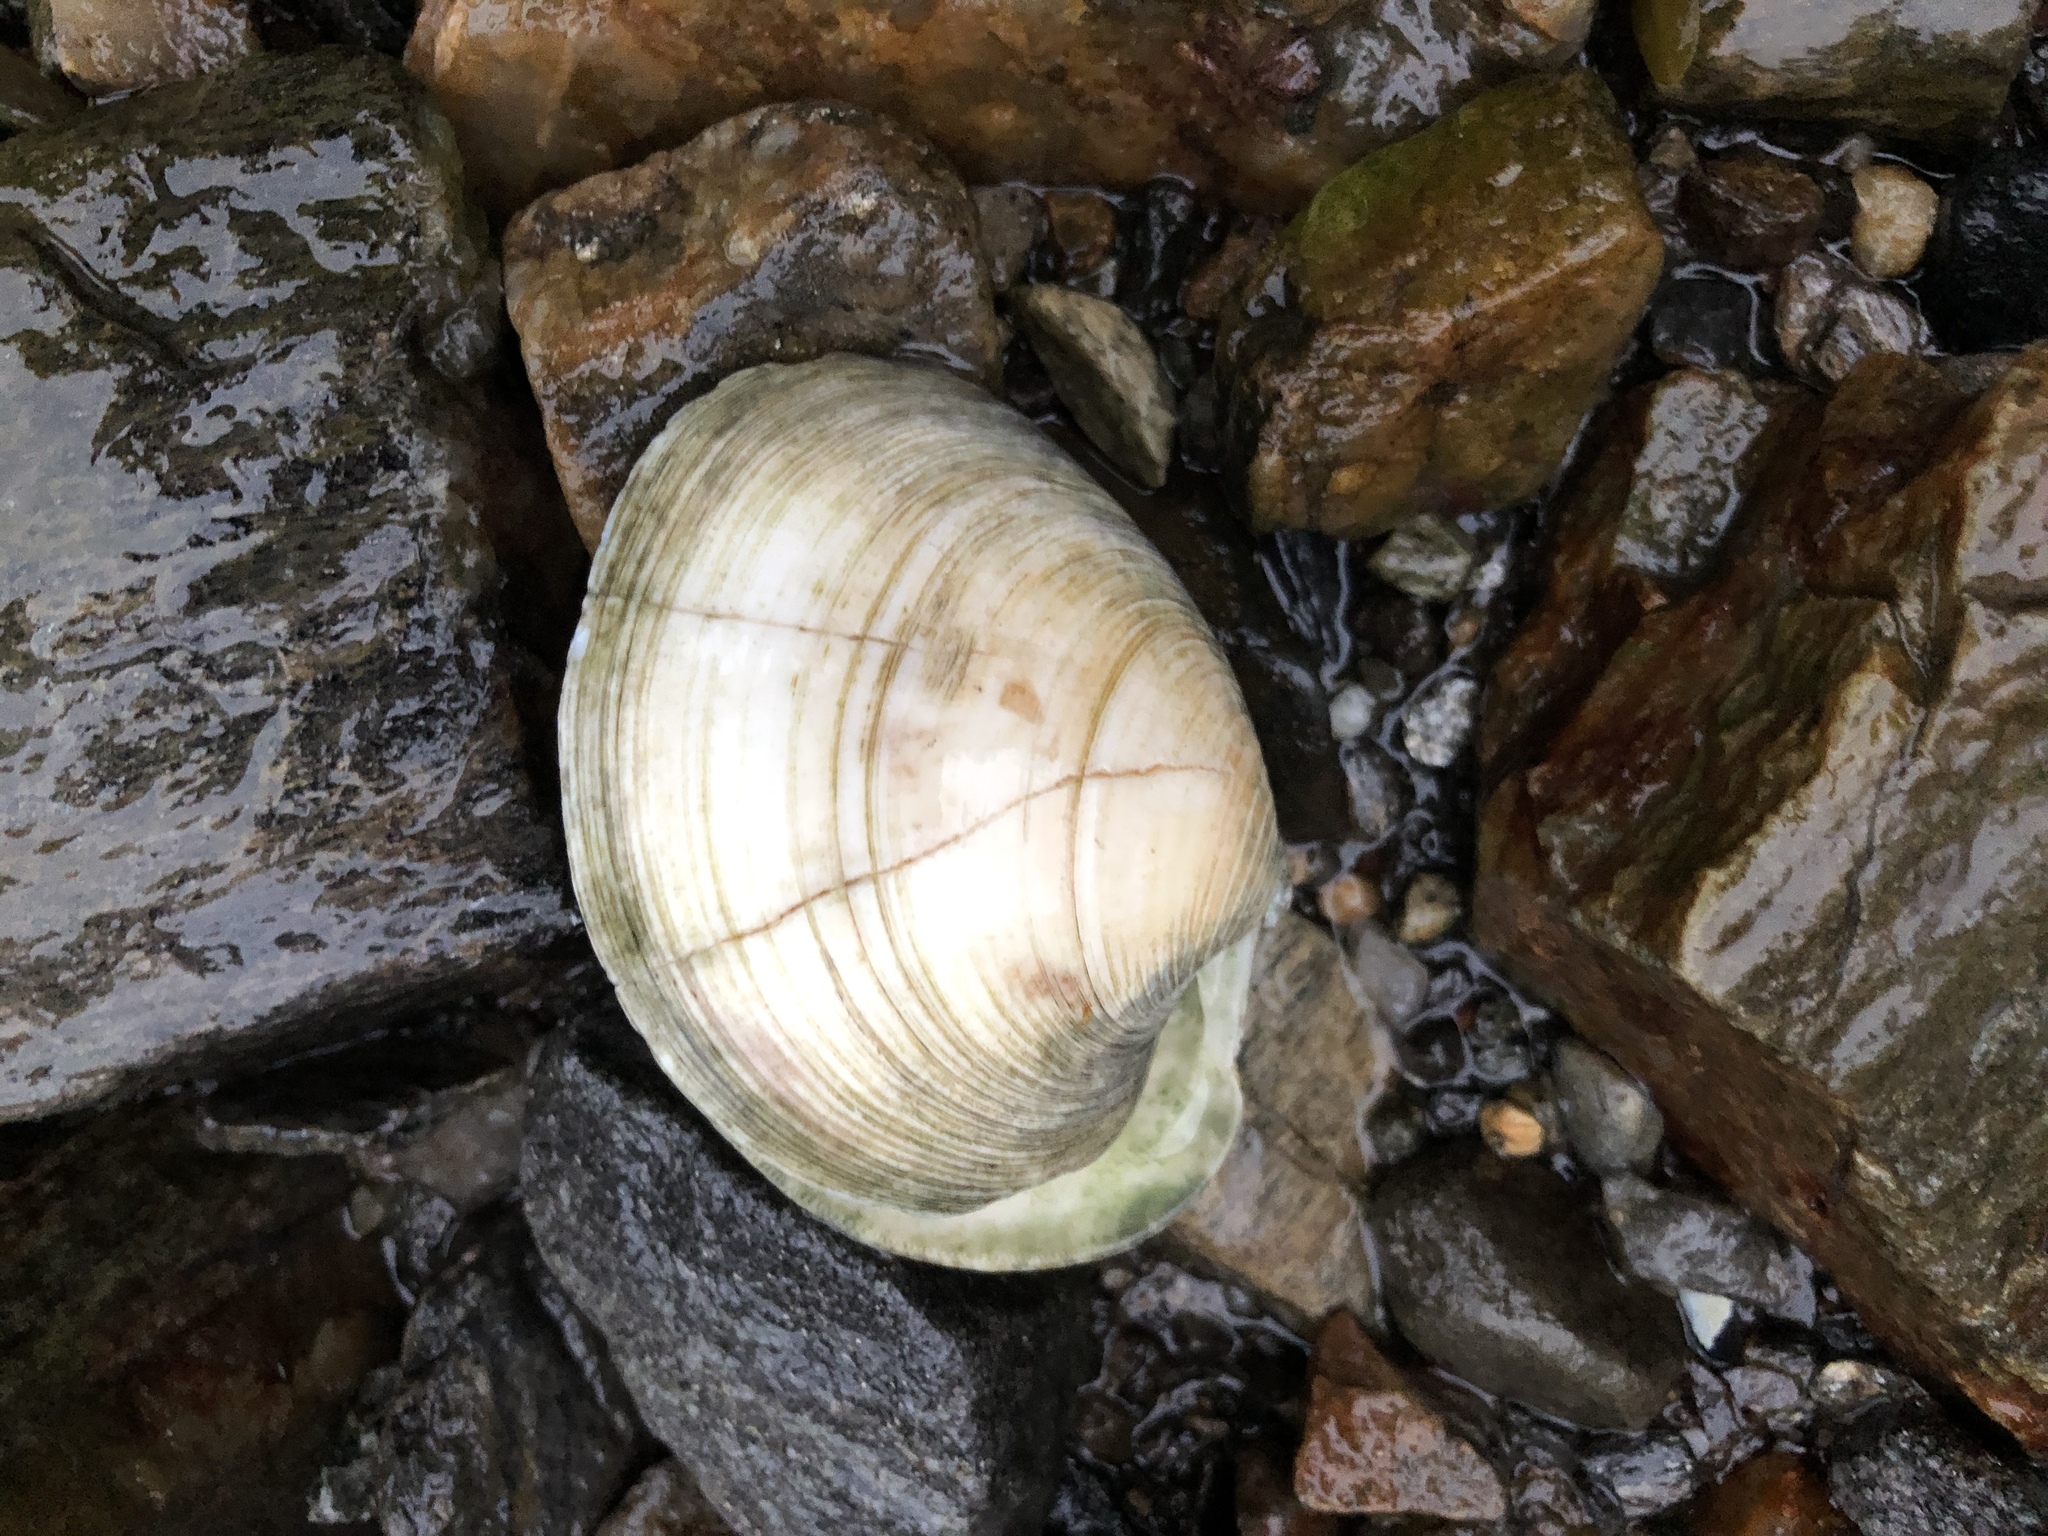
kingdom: Animalia
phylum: Mollusca
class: Bivalvia
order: Venerida
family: Veneridae
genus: Mercenaria
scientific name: Mercenaria mercenaria
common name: American hard-shelled clam
